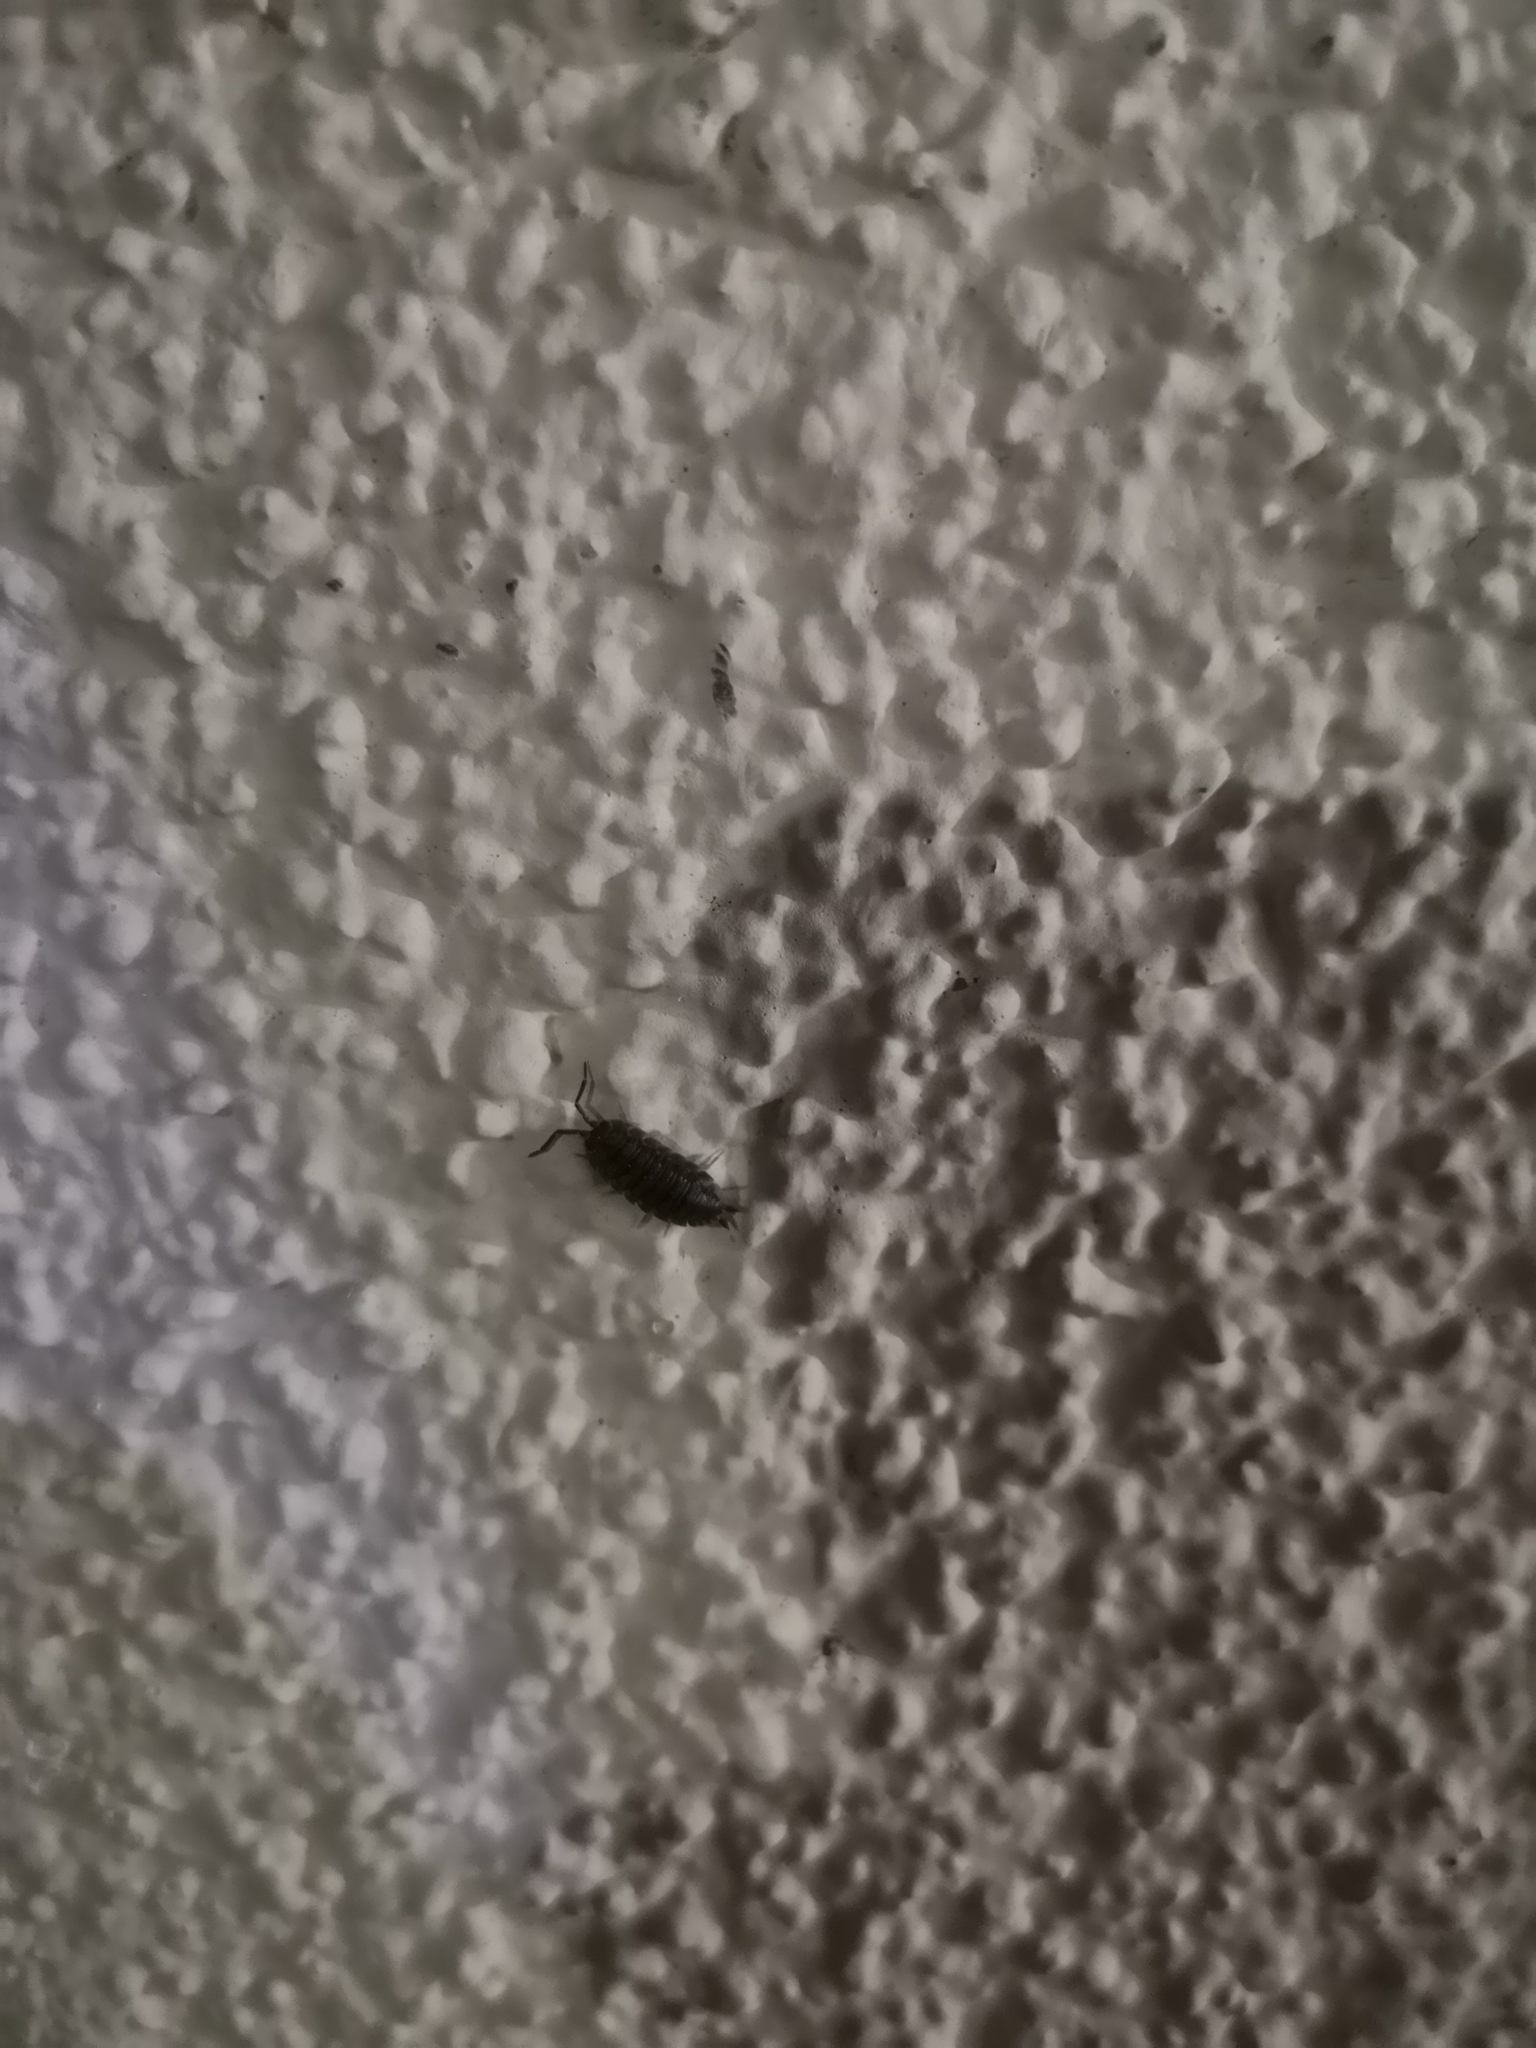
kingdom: Animalia
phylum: Arthropoda
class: Malacostraca
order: Isopoda
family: Porcellionidae
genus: Porcellio
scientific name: Porcellio scaber
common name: Common rough woodlouse
